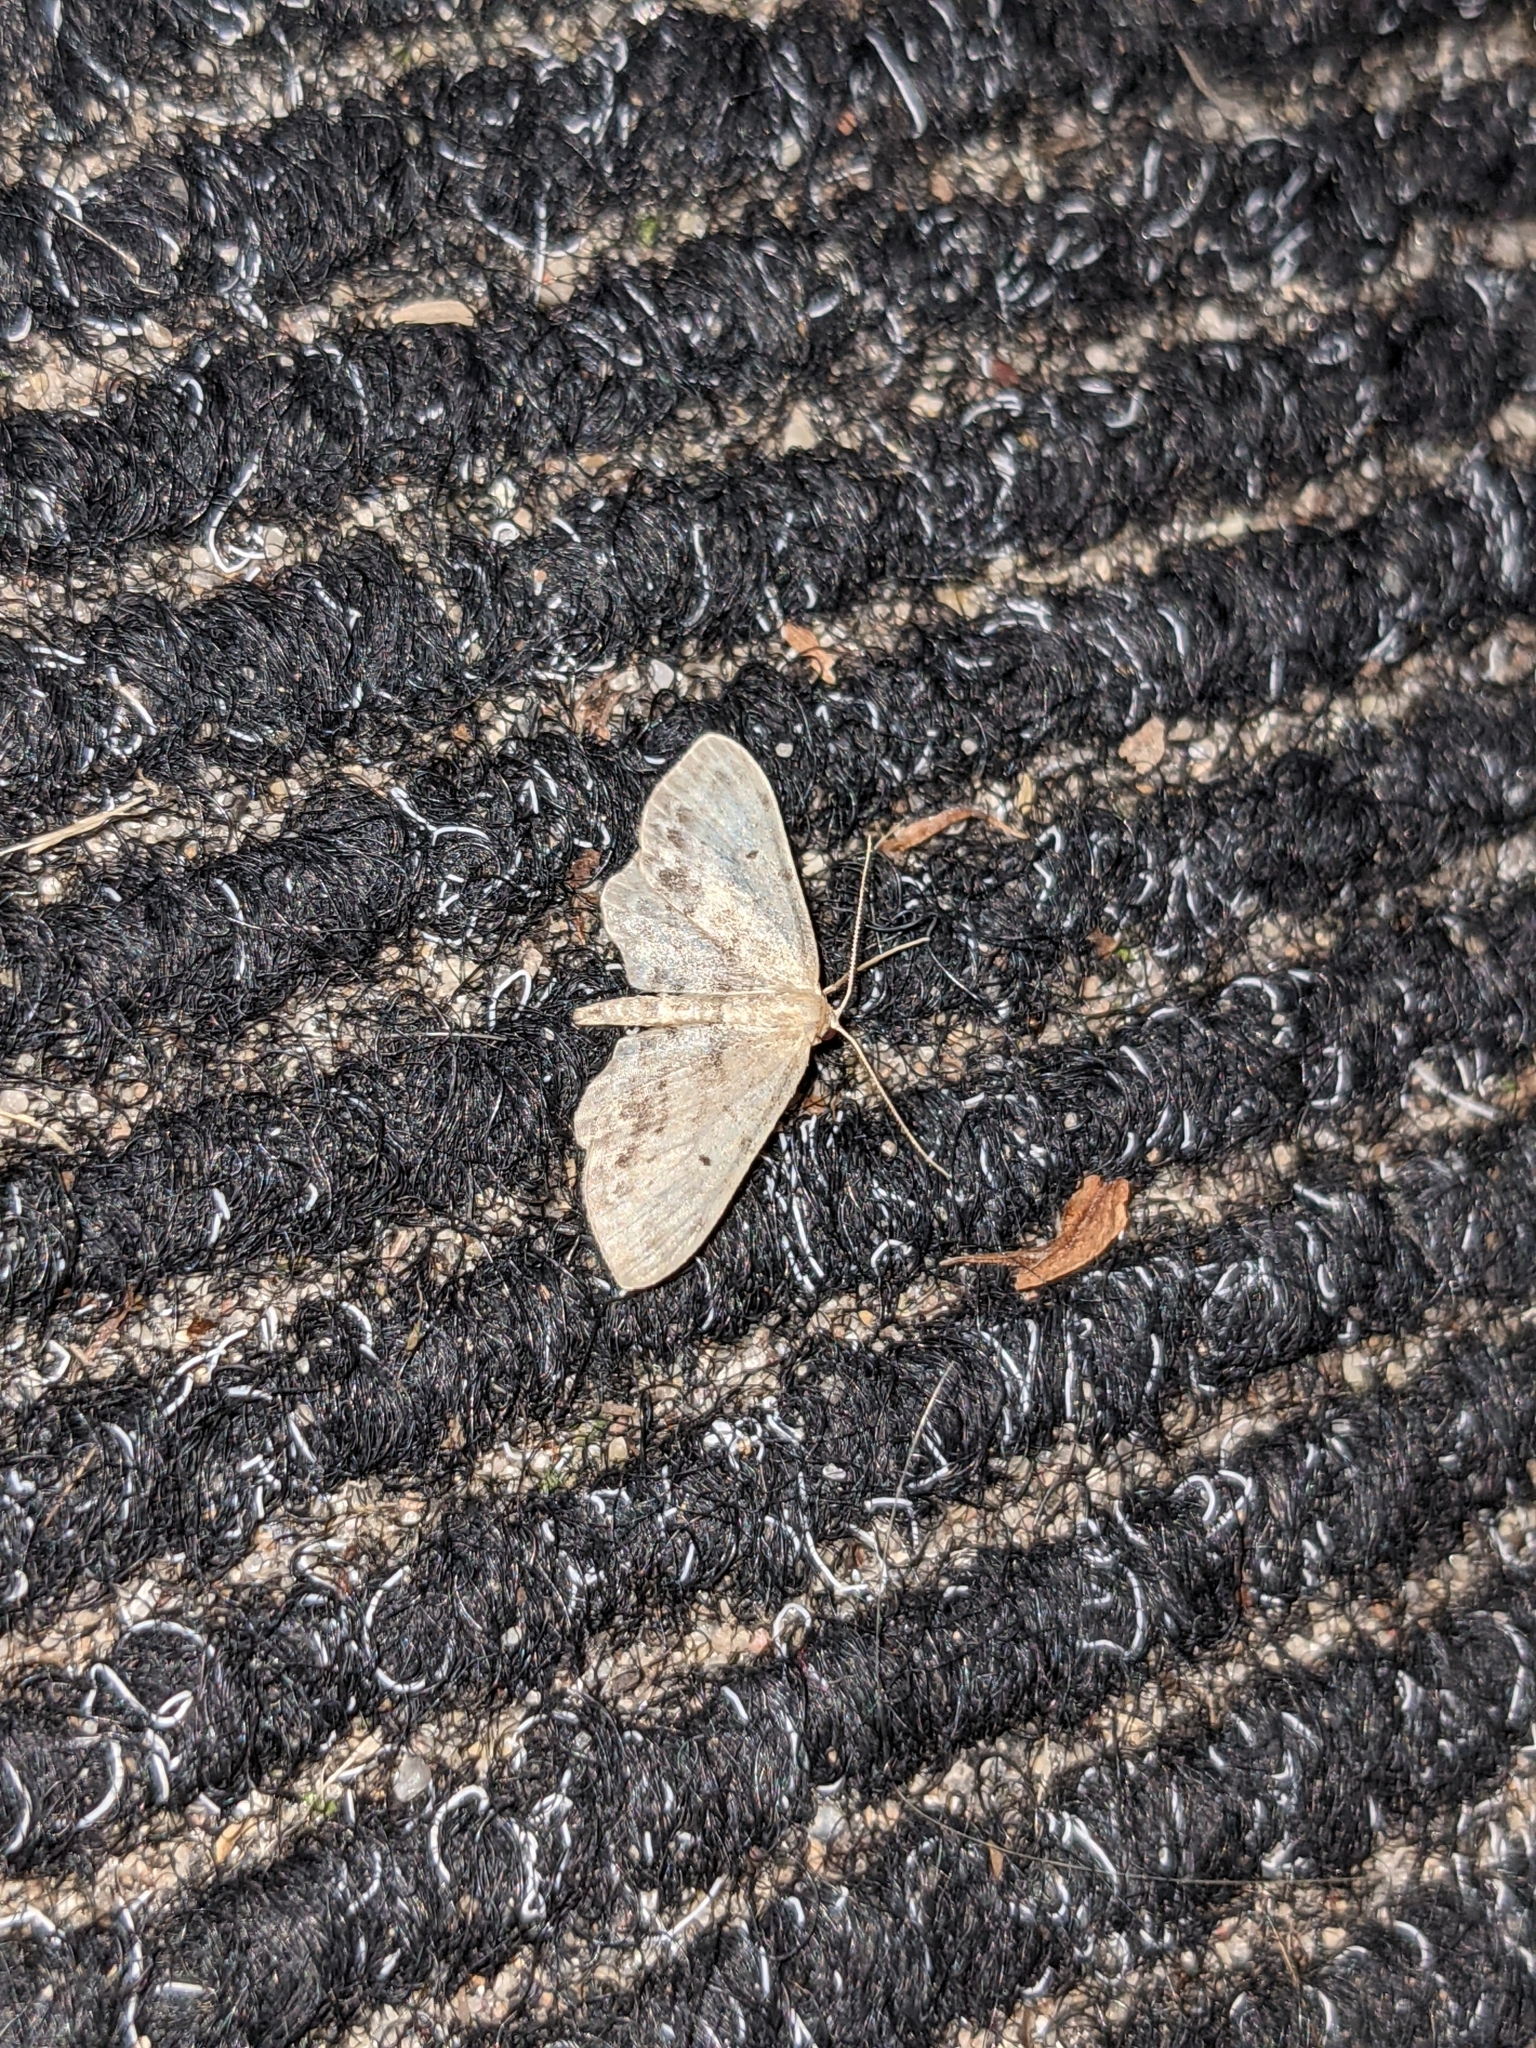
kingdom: Animalia
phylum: Arthropoda
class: Insecta
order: Lepidoptera
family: Geometridae
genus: Idaea
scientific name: Idaea dimidiata
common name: Single-dotted wave
